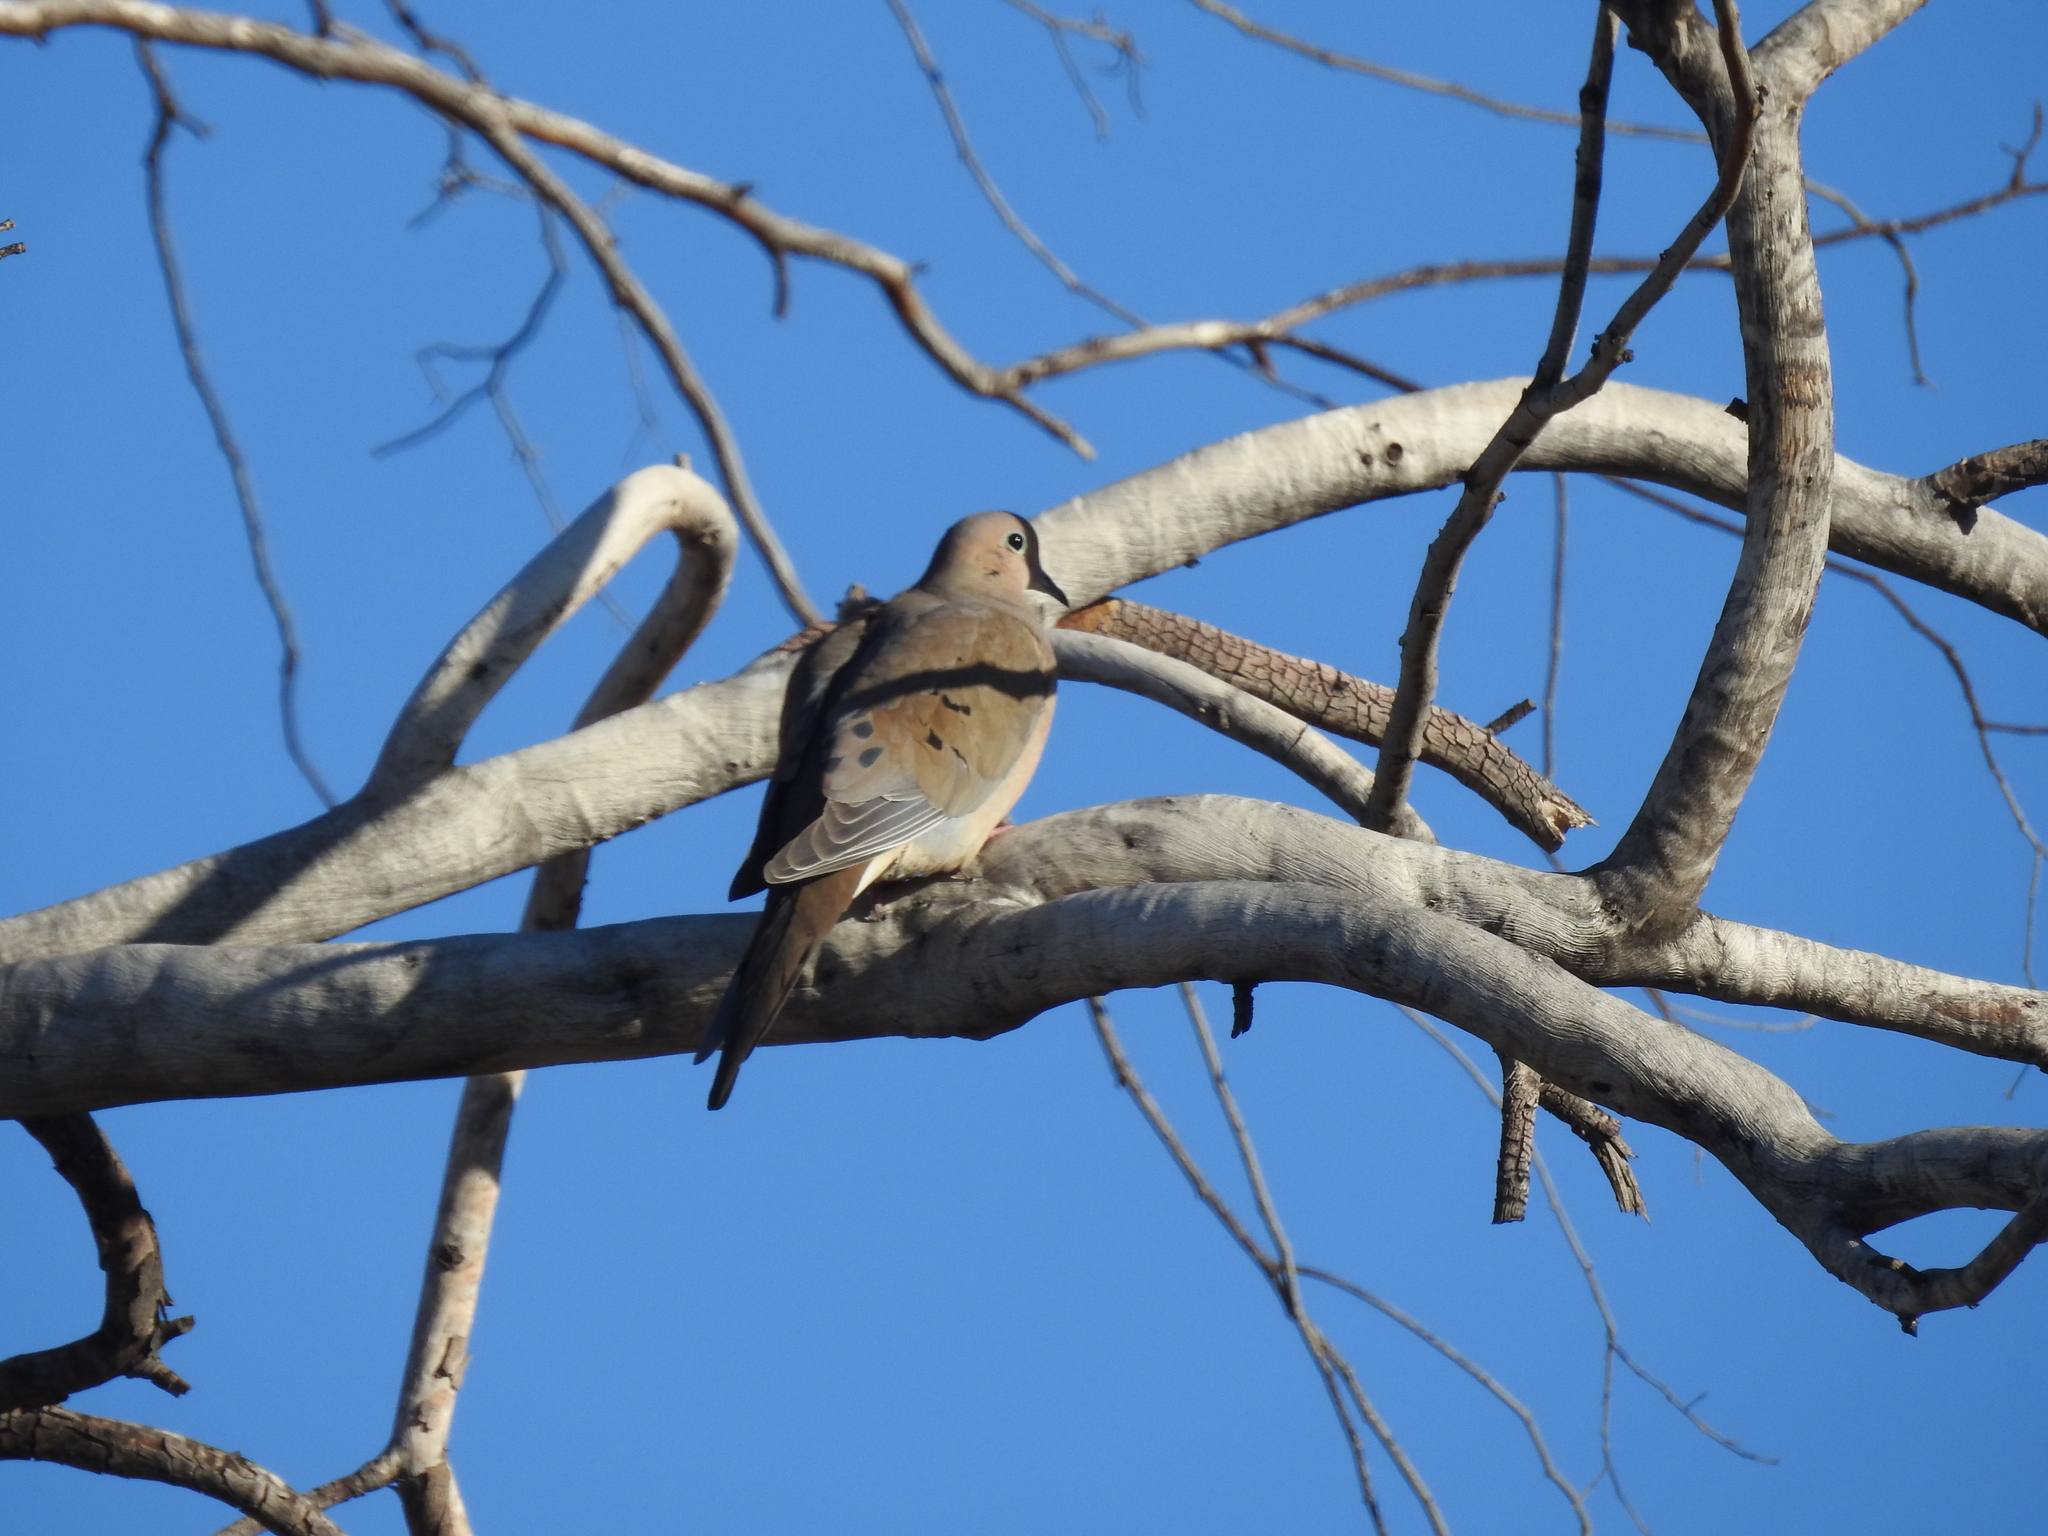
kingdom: Animalia
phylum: Chordata
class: Aves
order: Columbiformes
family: Columbidae
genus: Zenaida
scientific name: Zenaida macroura
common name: Mourning dove
